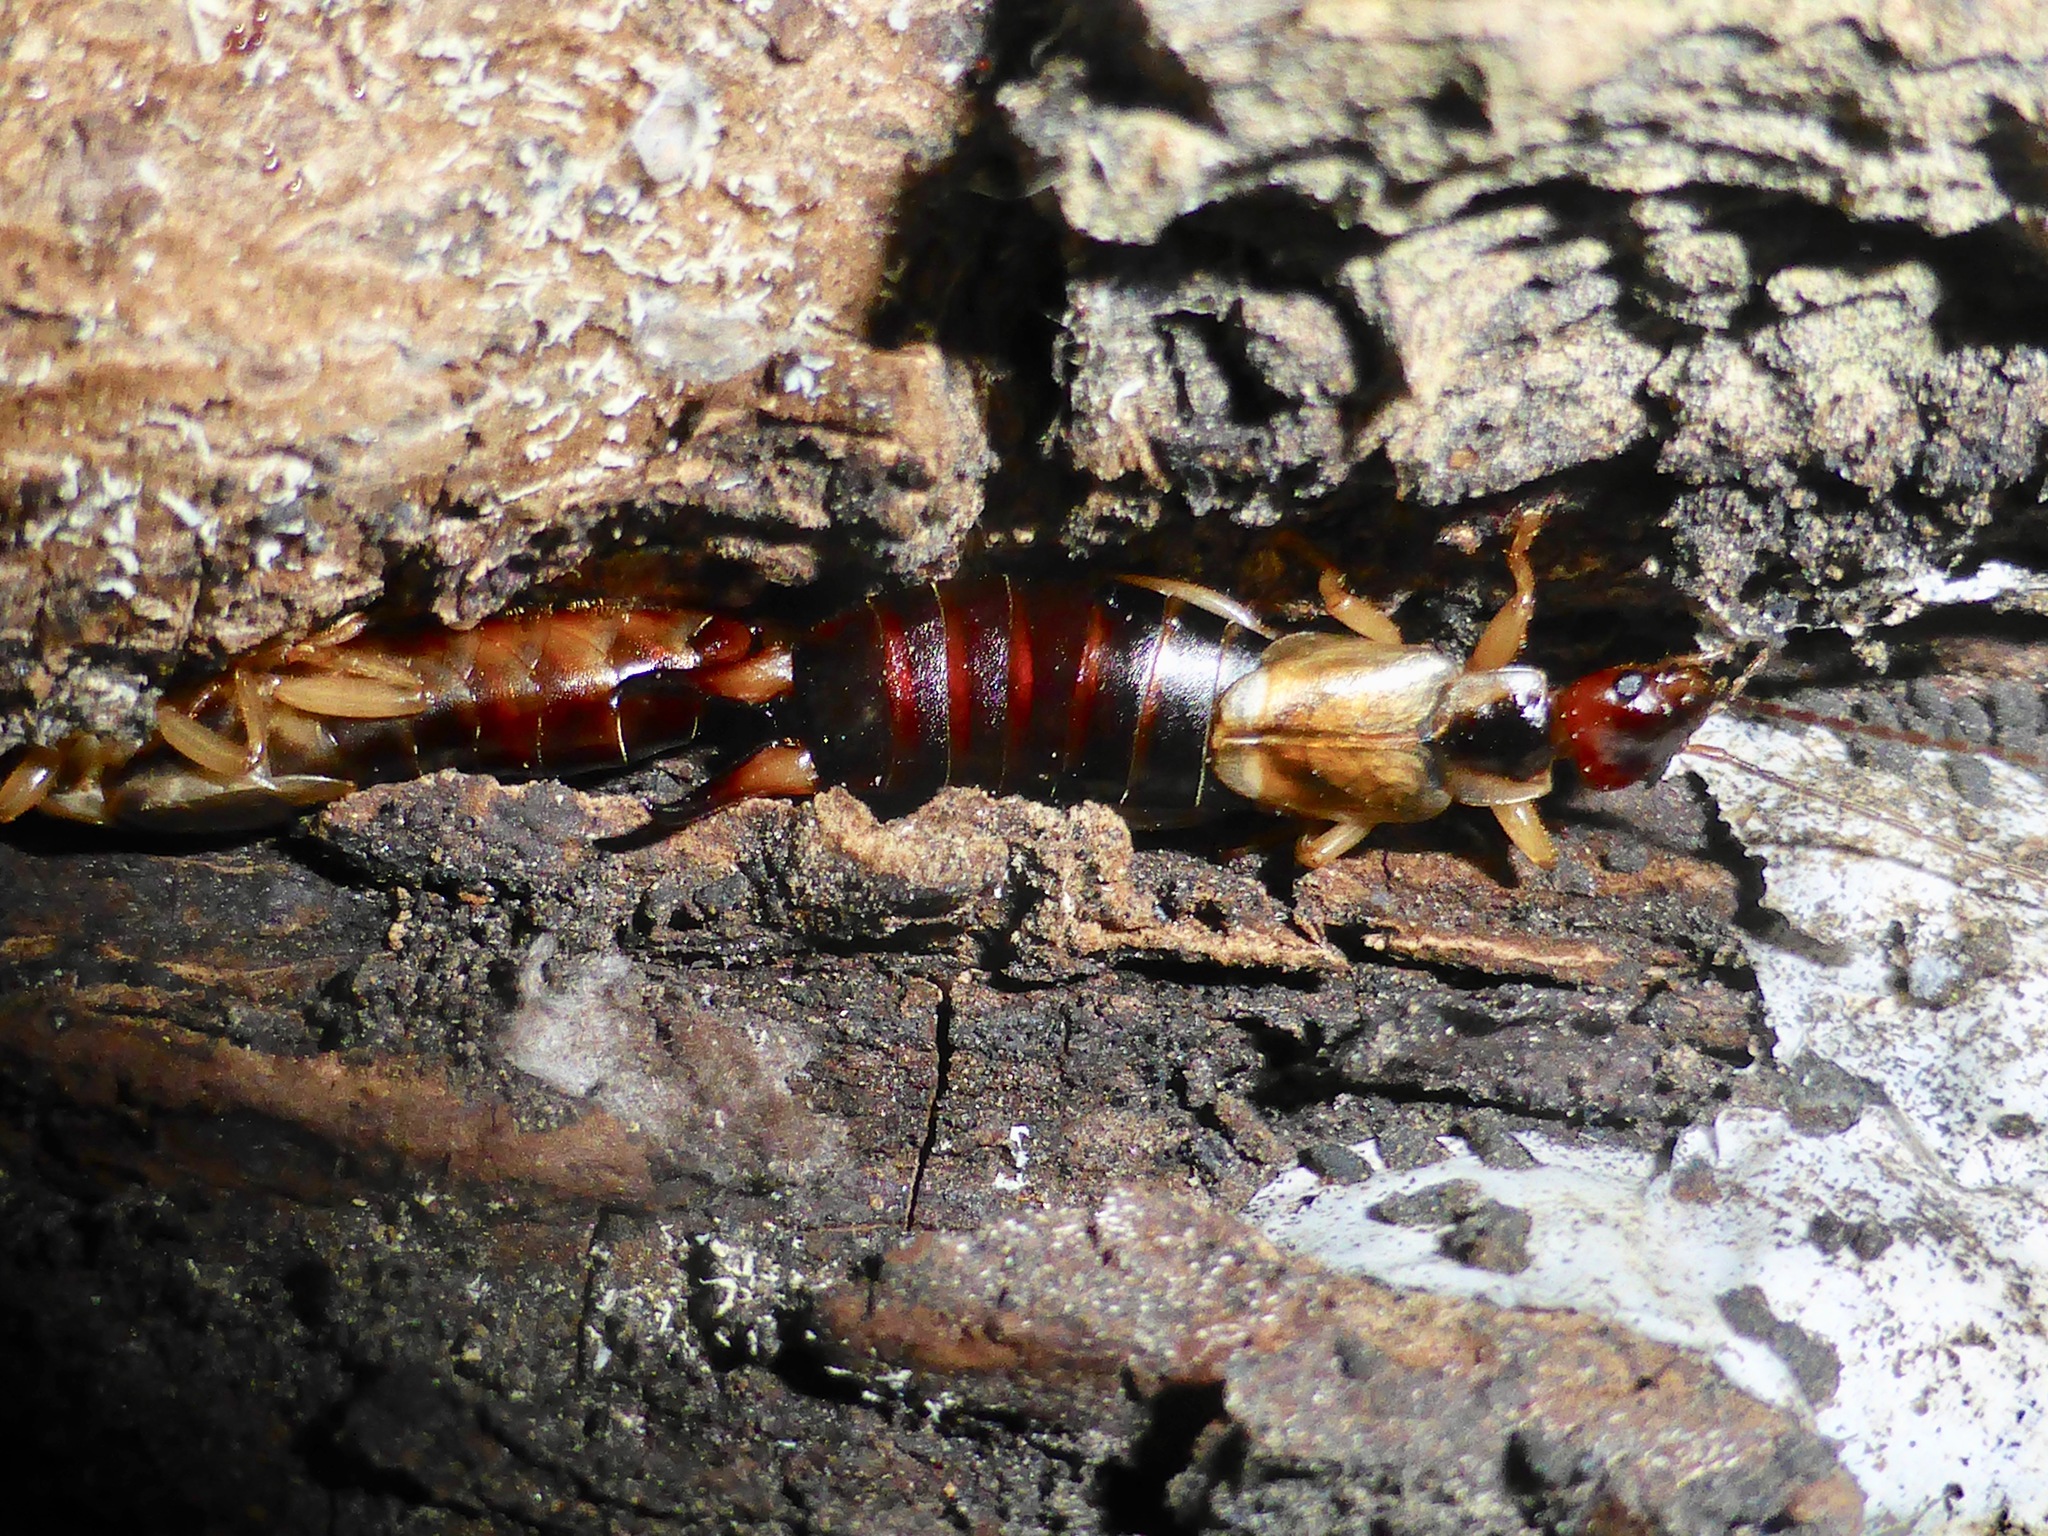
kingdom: Animalia
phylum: Arthropoda
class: Insecta
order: Dermaptera
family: Forficulidae
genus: Forficula
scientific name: Forficula
